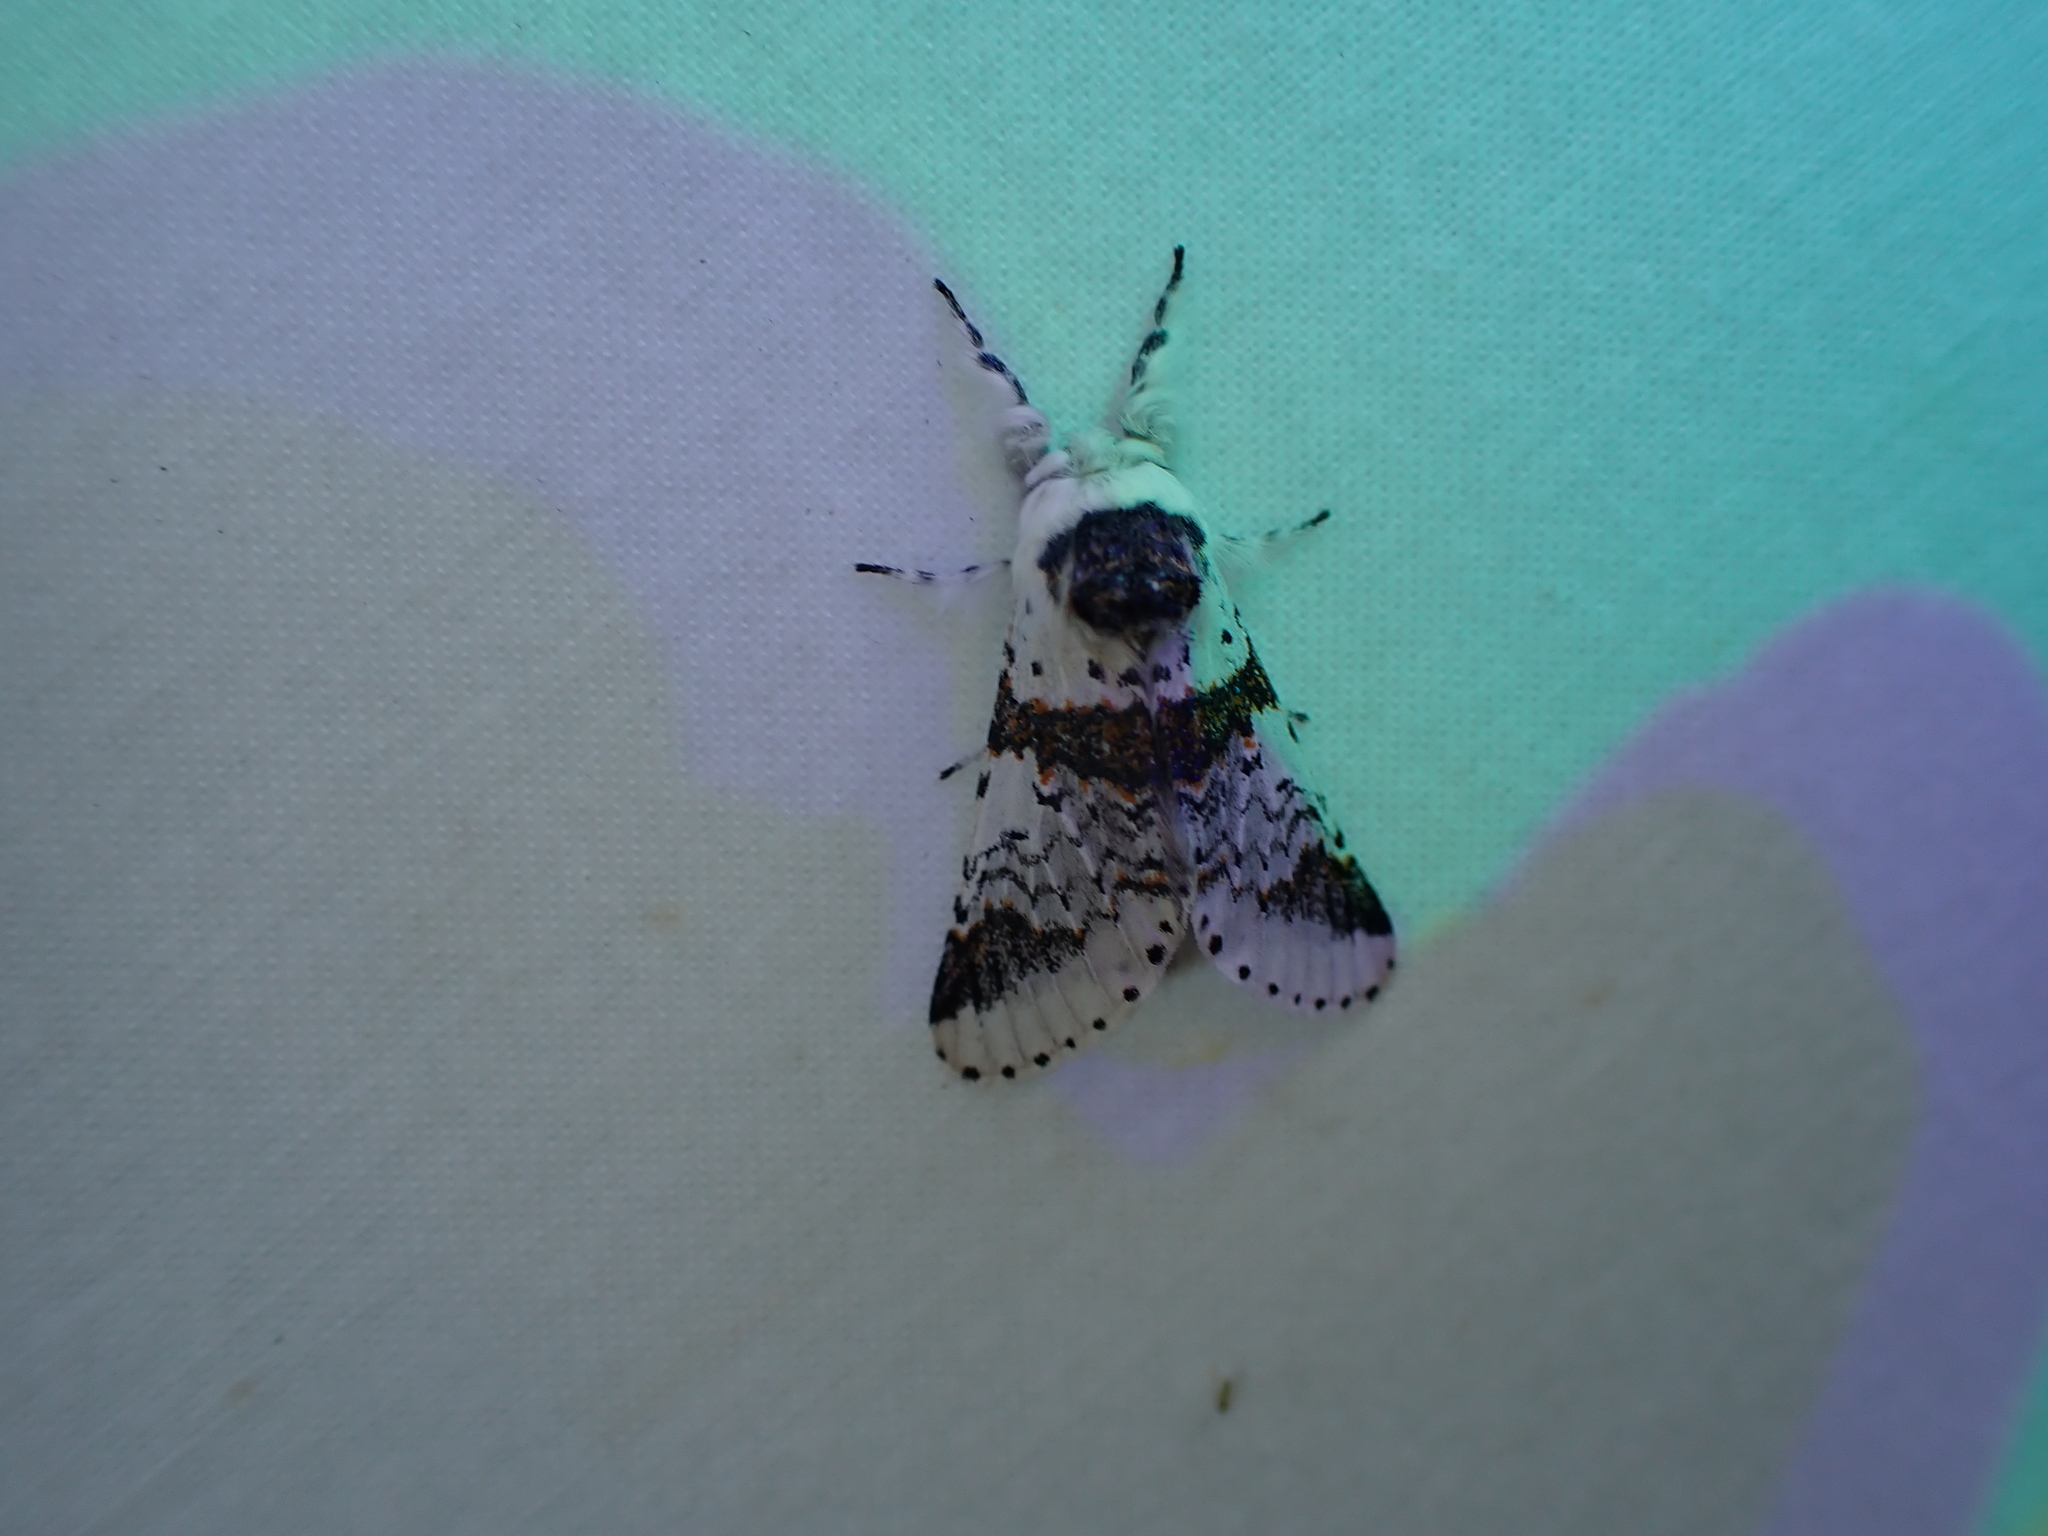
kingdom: Animalia
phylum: Arthropoda
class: Insecta
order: Lepidoptera
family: Notodontidae
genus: Furcula
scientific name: Furcula scolopendrina
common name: Zigzag furcula moth
